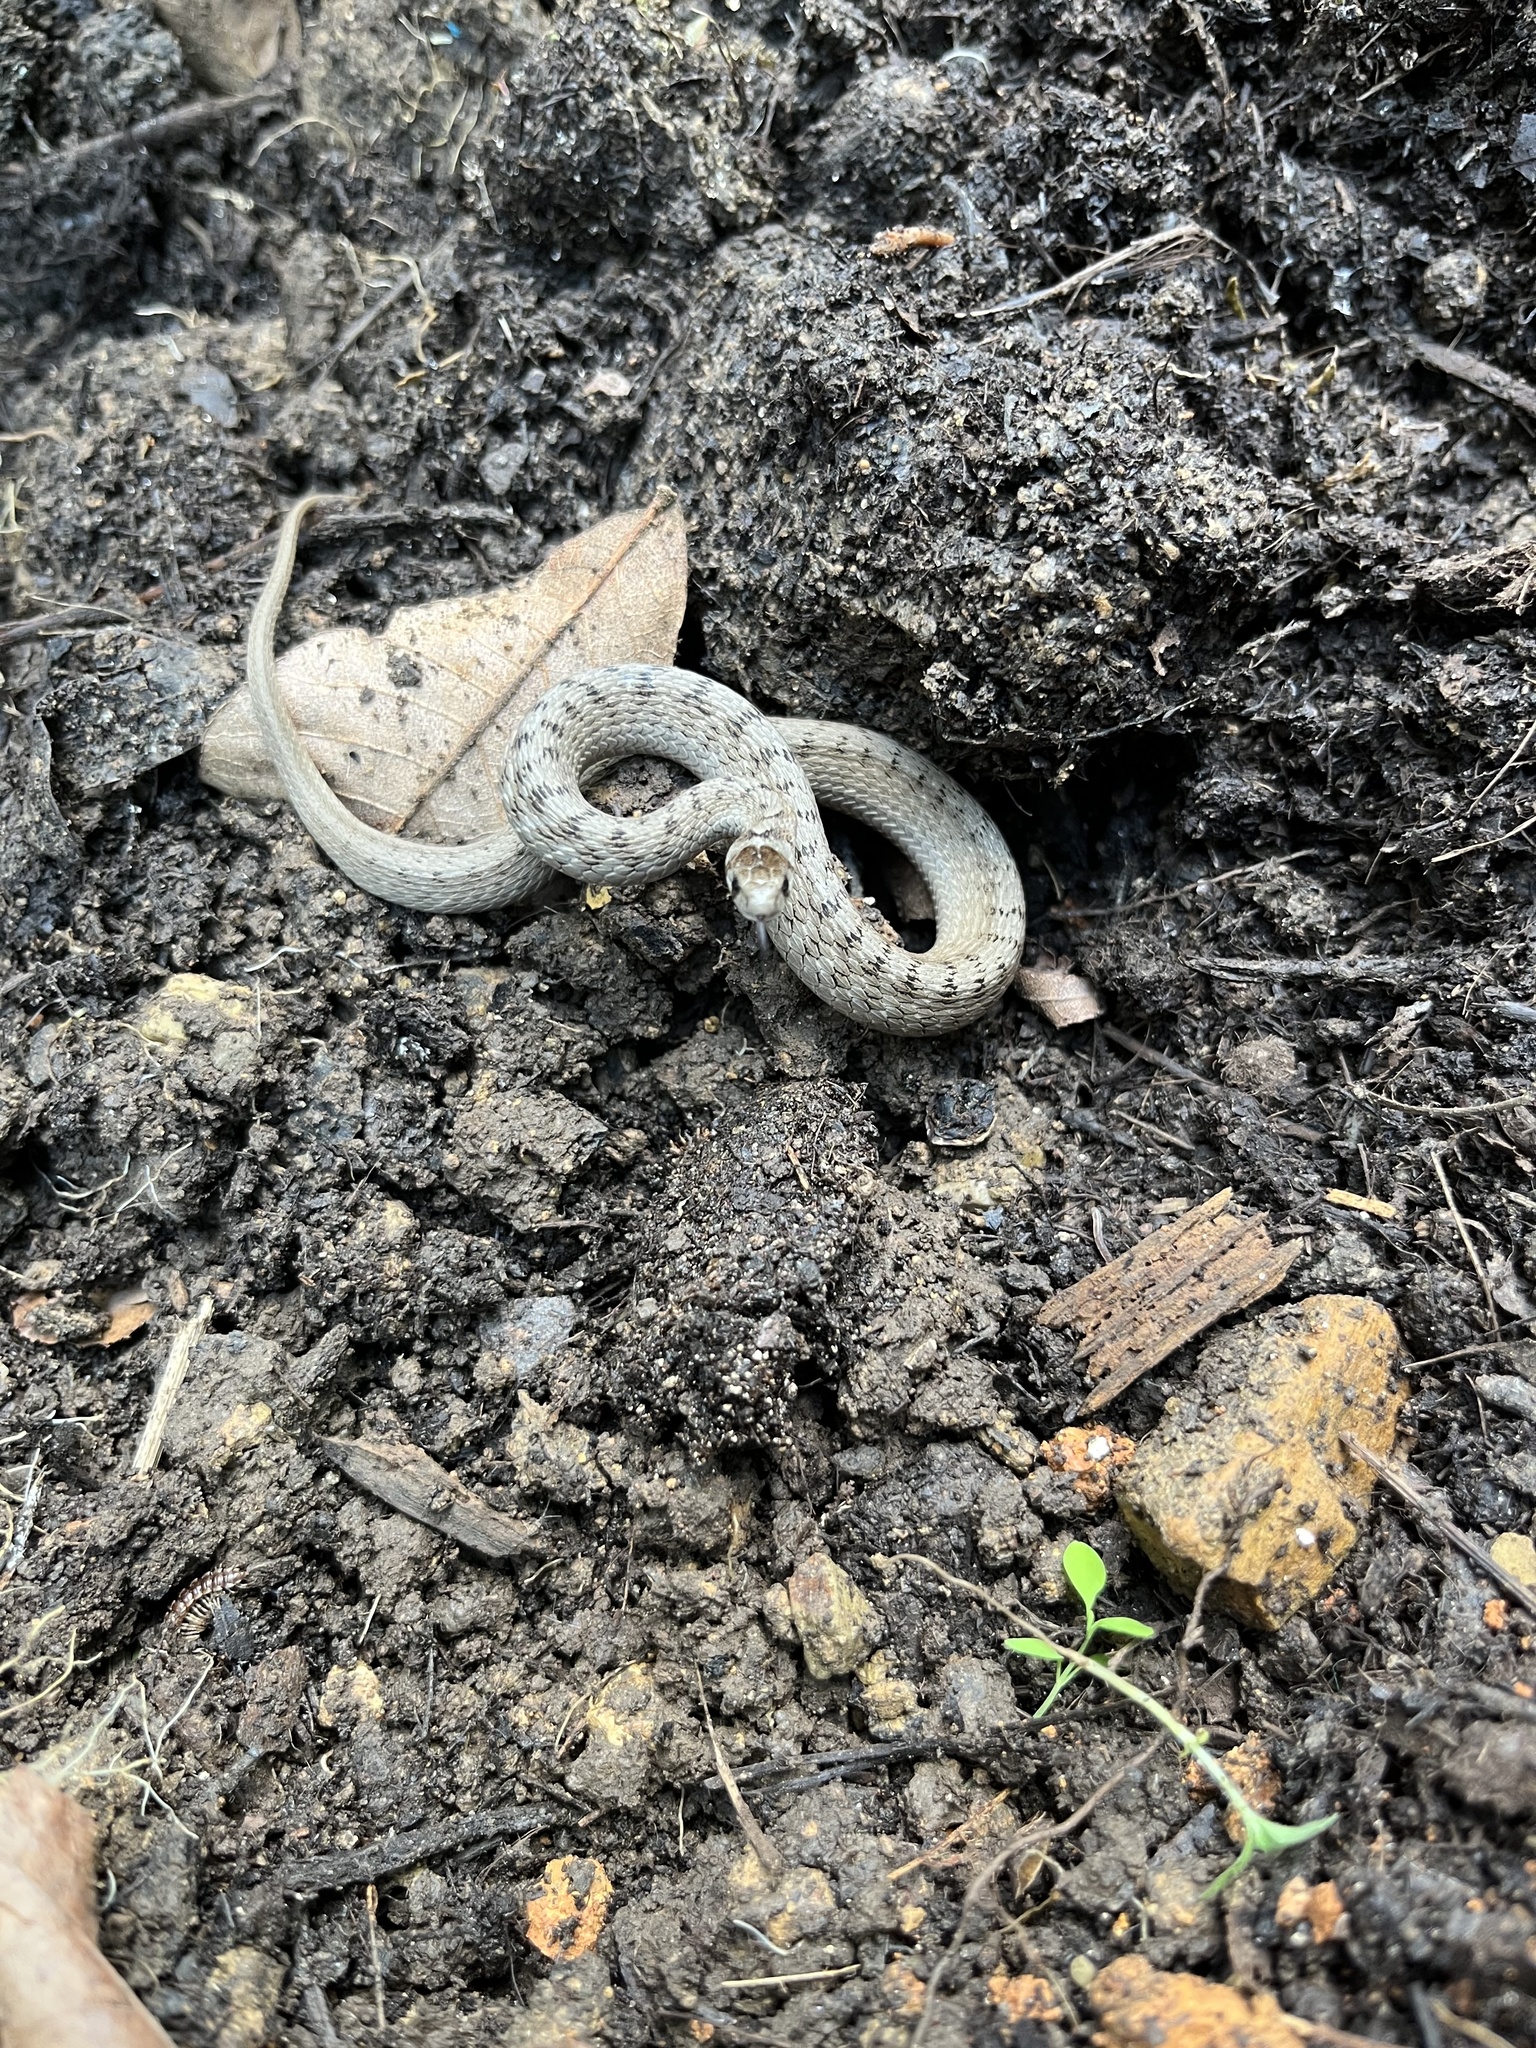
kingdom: Animalia
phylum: Chordata
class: Squamata
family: Colubridae
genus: Storeria
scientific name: Storeria dekayi
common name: (dekay’s) brown snake
